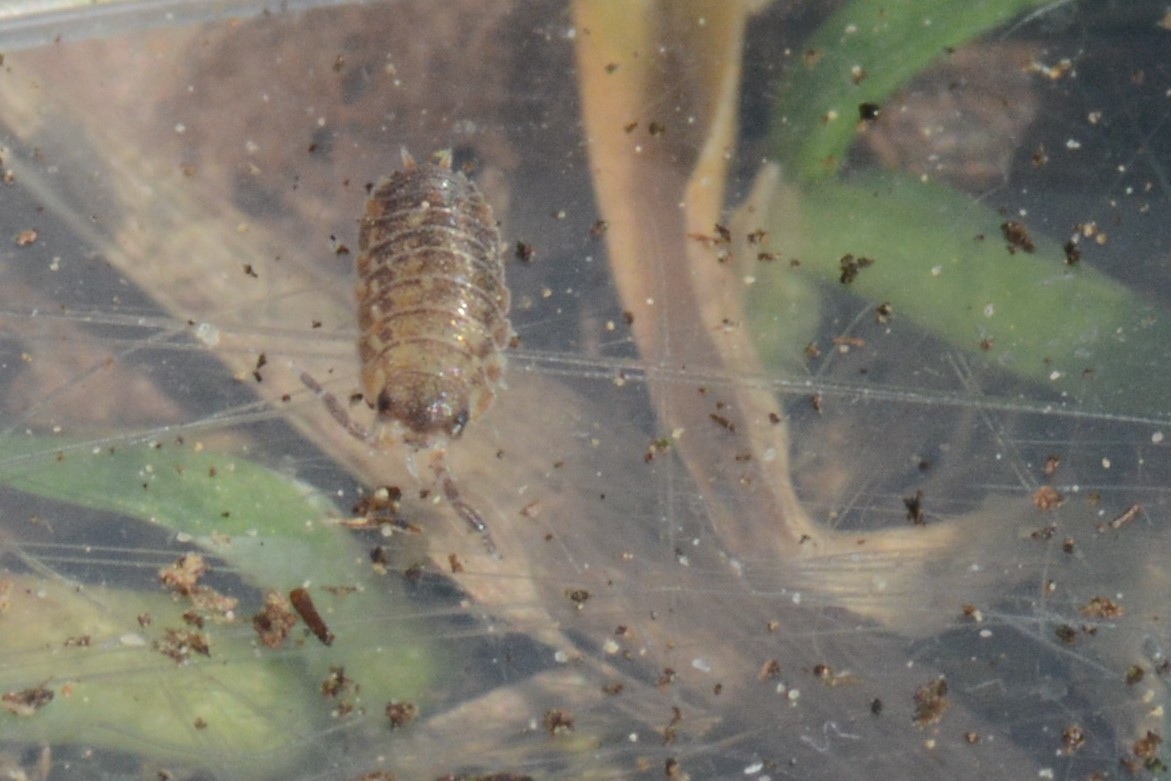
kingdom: Animalia
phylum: Arthropoda
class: Malacostraca
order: Isopoda
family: Porcellionidae
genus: Porcellio
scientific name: Porcellio scaber
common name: Common rough woodlouse
